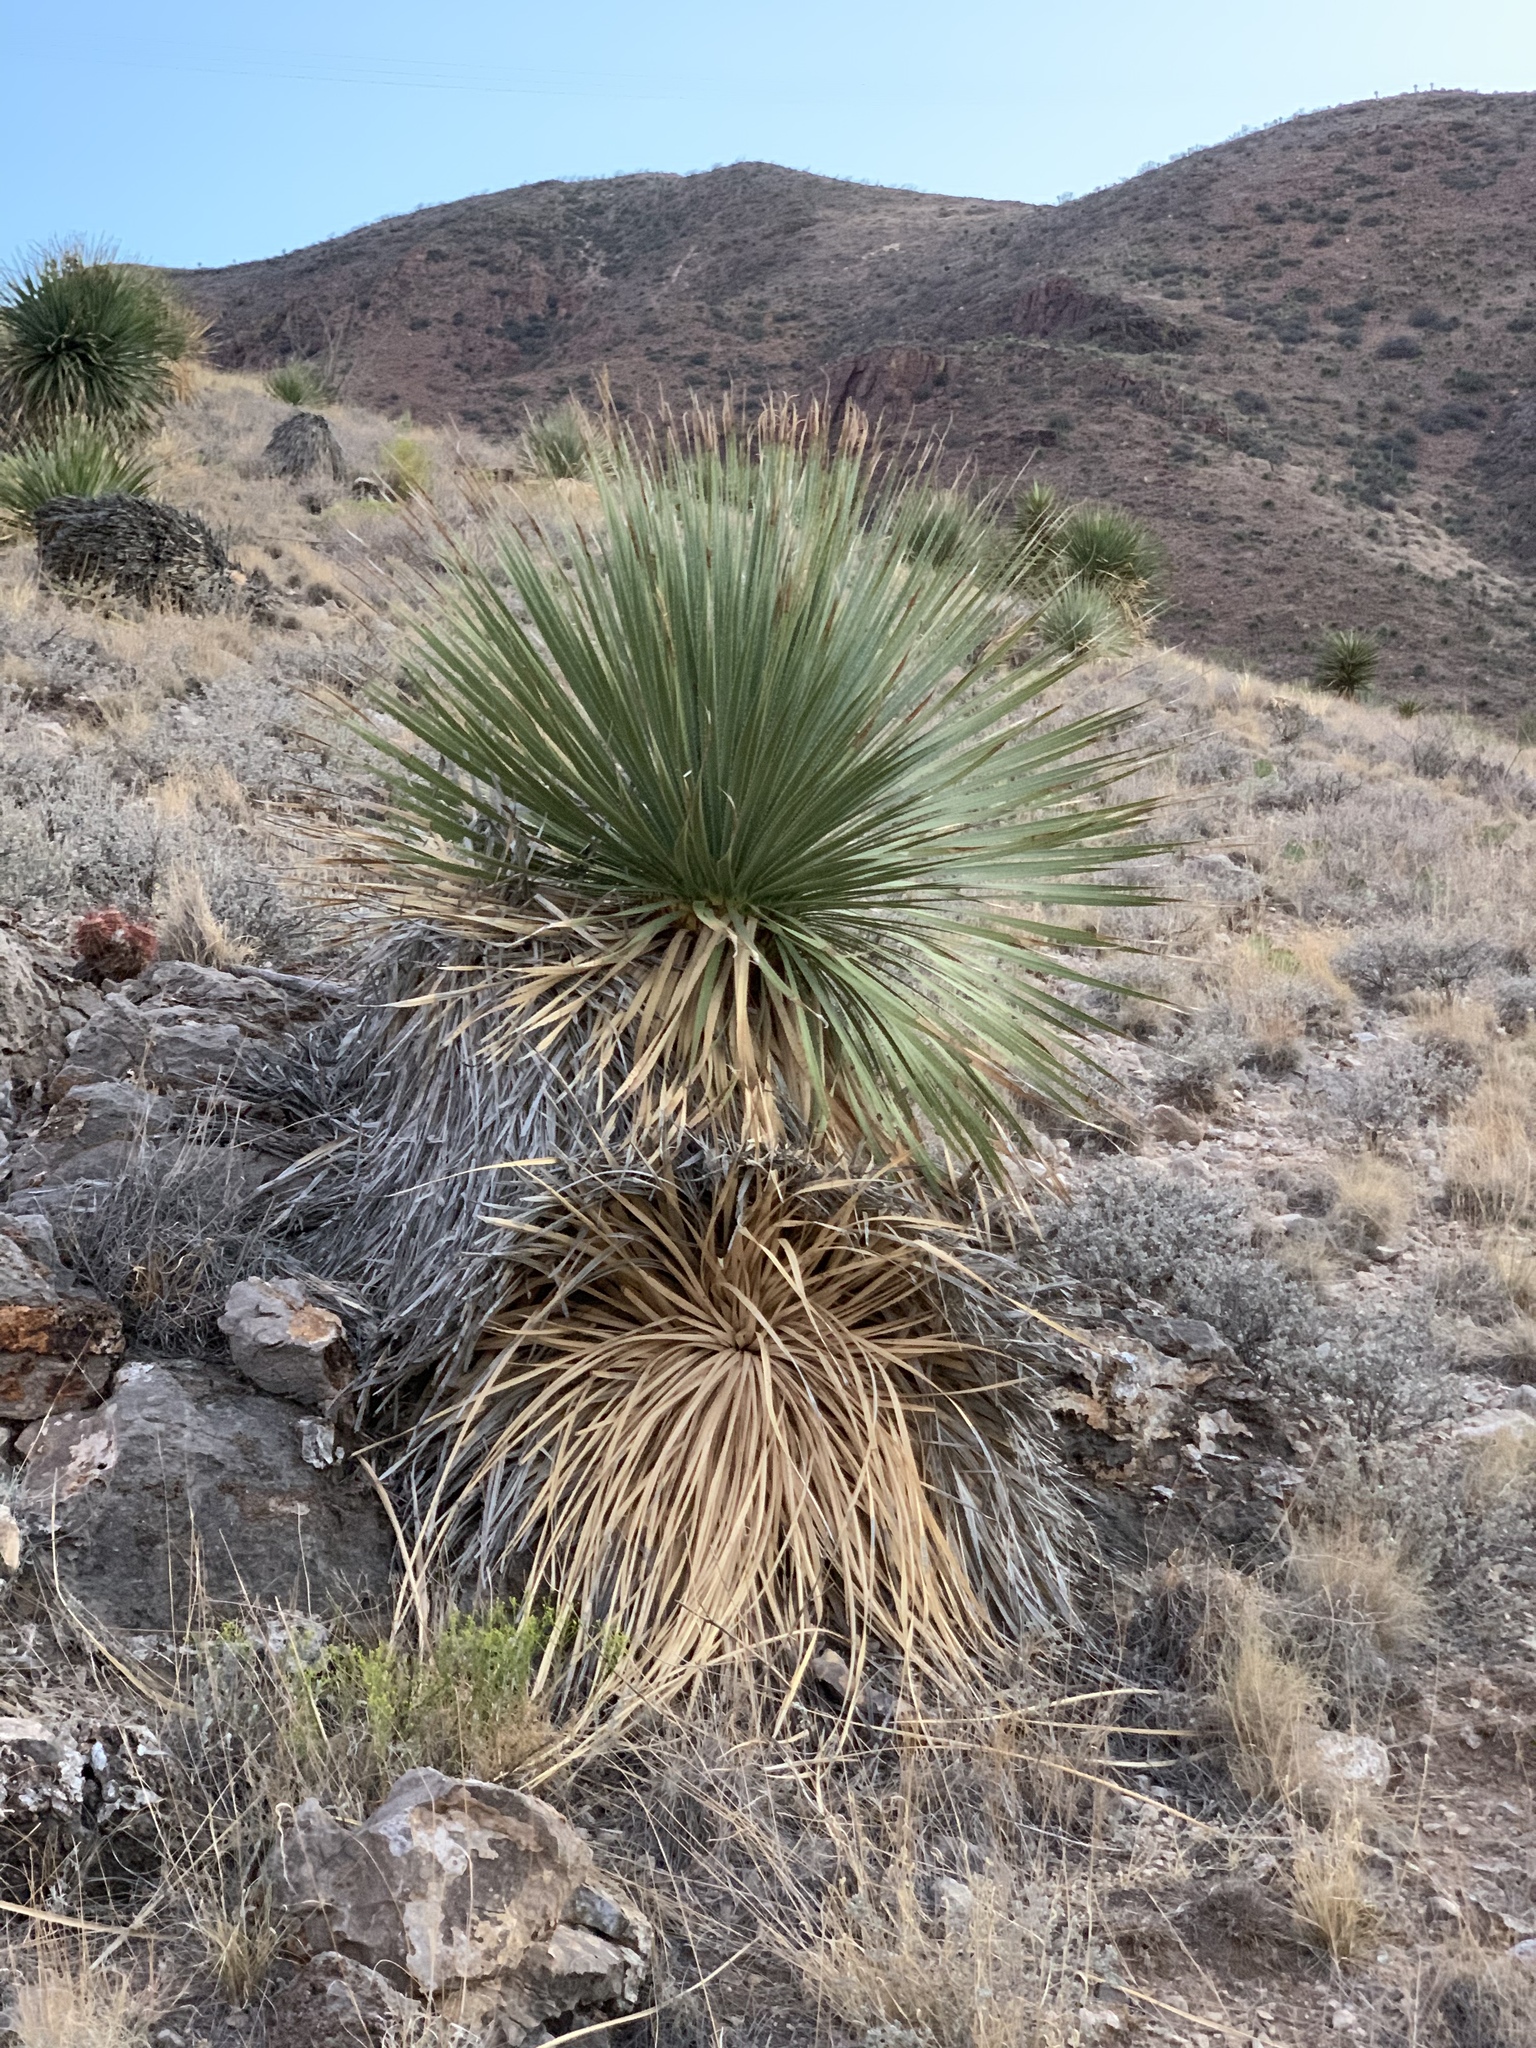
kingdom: Plantae
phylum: Tracheophyta
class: Liliopsida
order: Asparagales
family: Asparagaceae
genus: Dasylirion
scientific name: Dasylirion wheeleri
